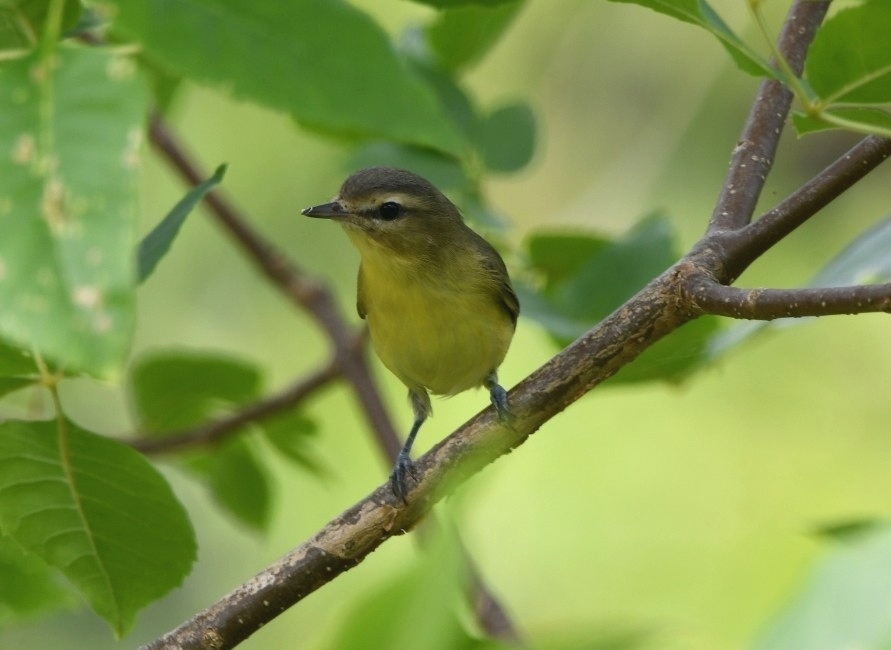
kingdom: Animalia
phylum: Chordata
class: Aves
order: Passeriformes
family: Vireonidae
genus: Vireo
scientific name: Vireo philadelphicus
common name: Philadelphia vireo
